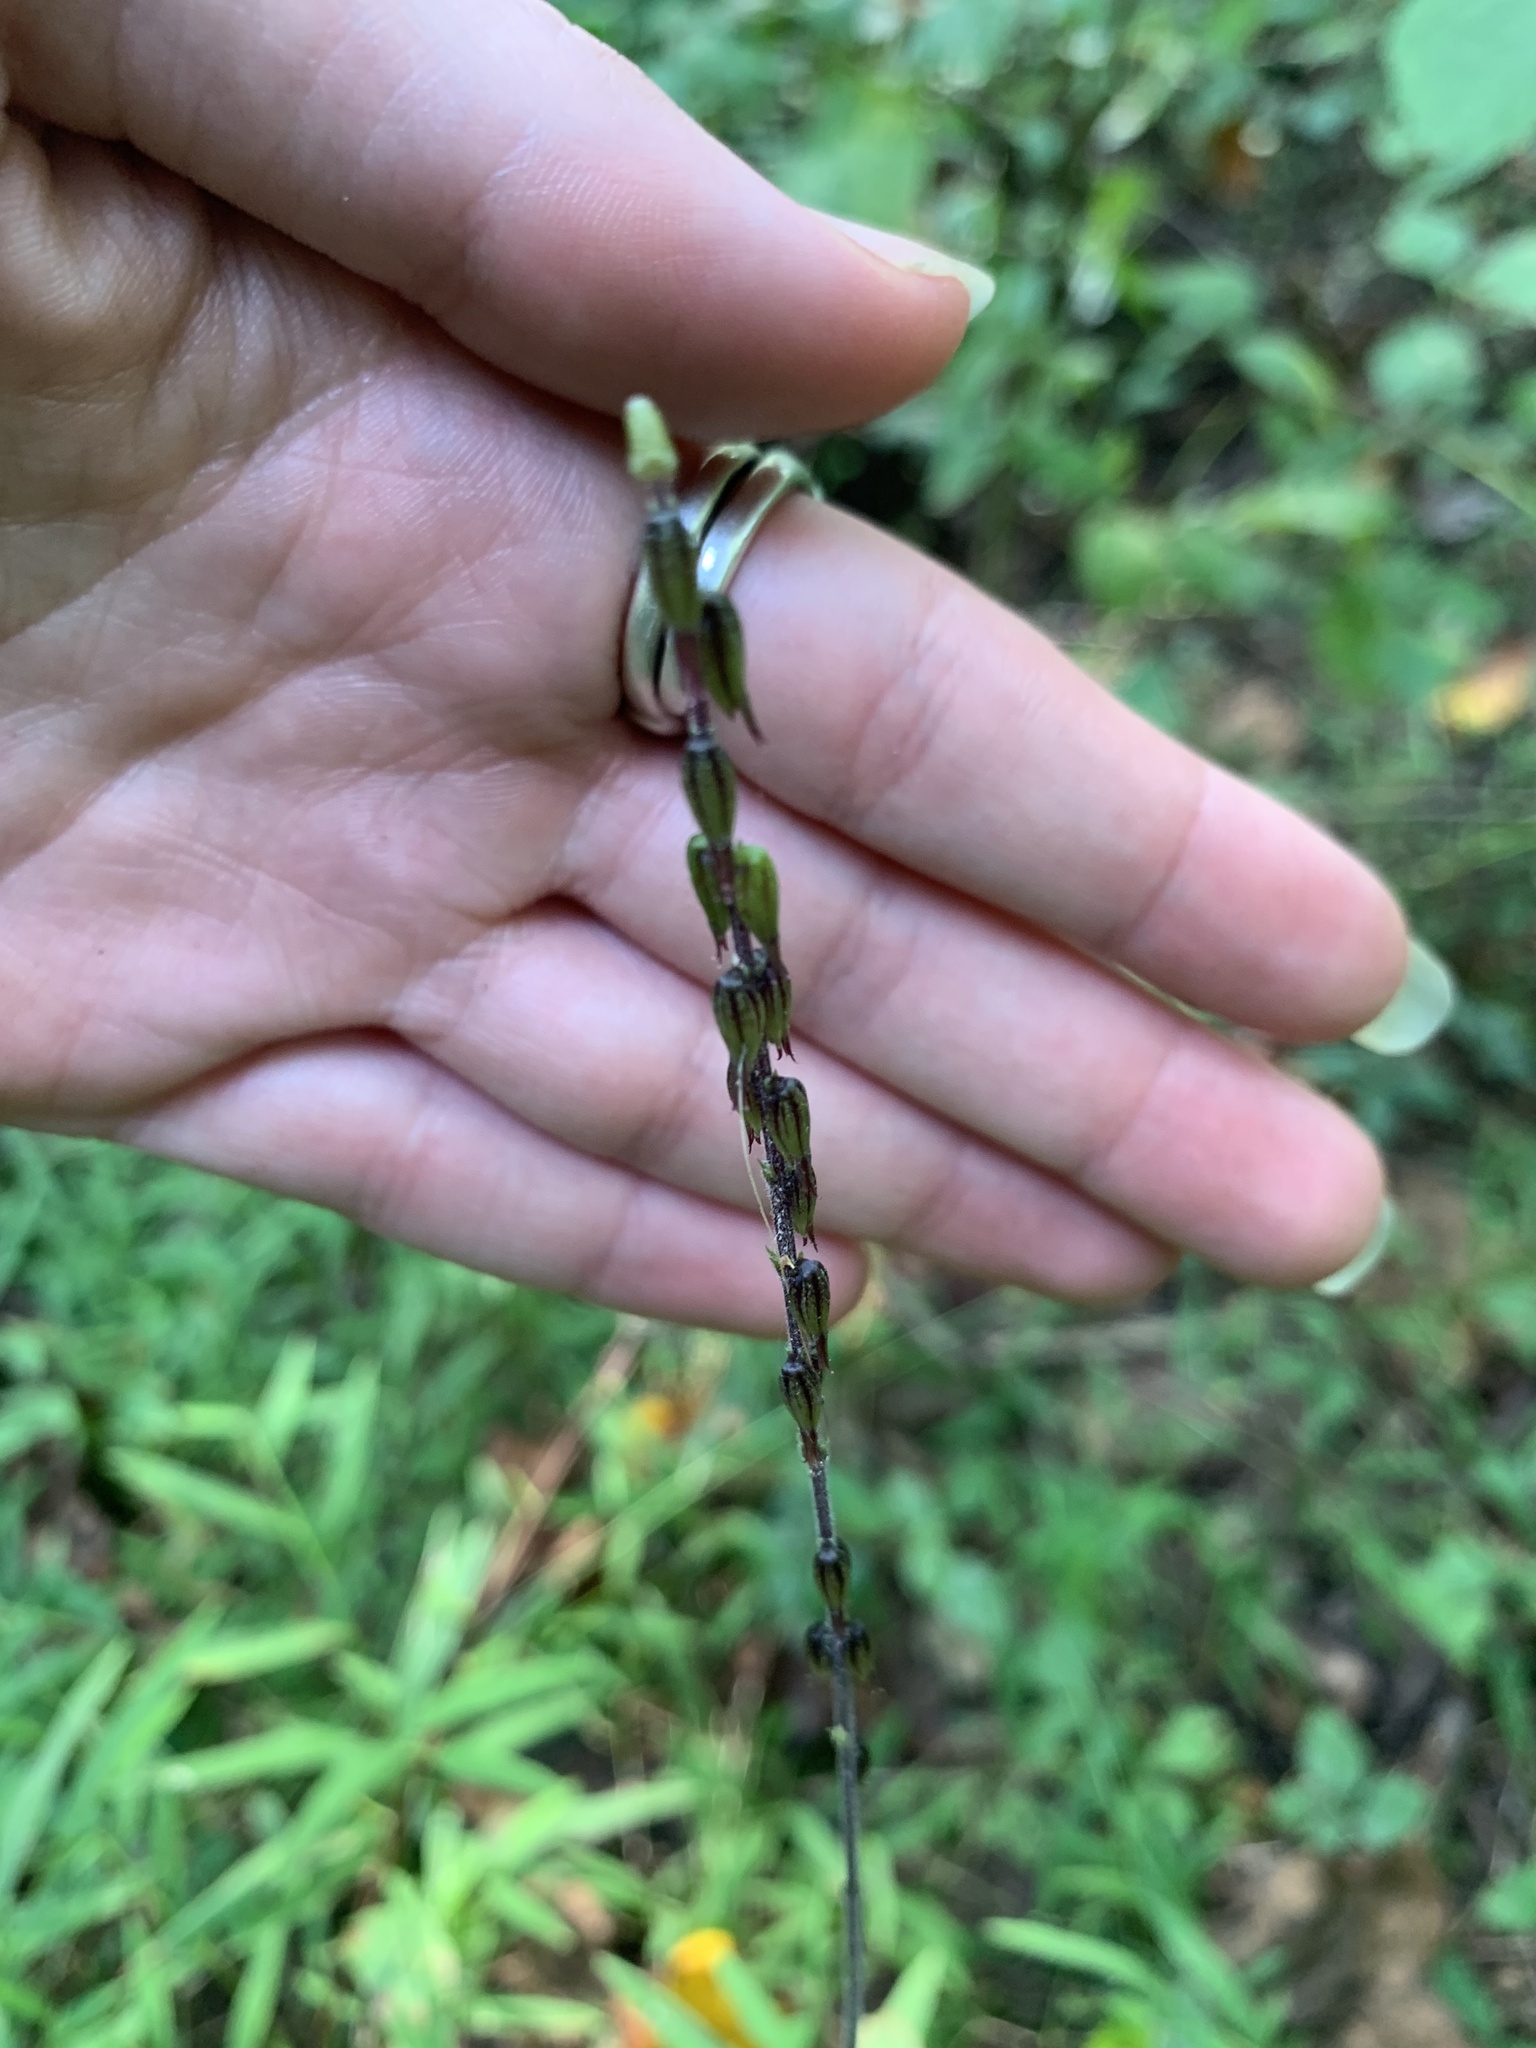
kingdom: Plantae
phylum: Tracheophyta
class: Magnoliopsida
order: Lamiales
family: Phrymaceae
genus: Phryma
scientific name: Phryma leptostachya
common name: American lopseed
